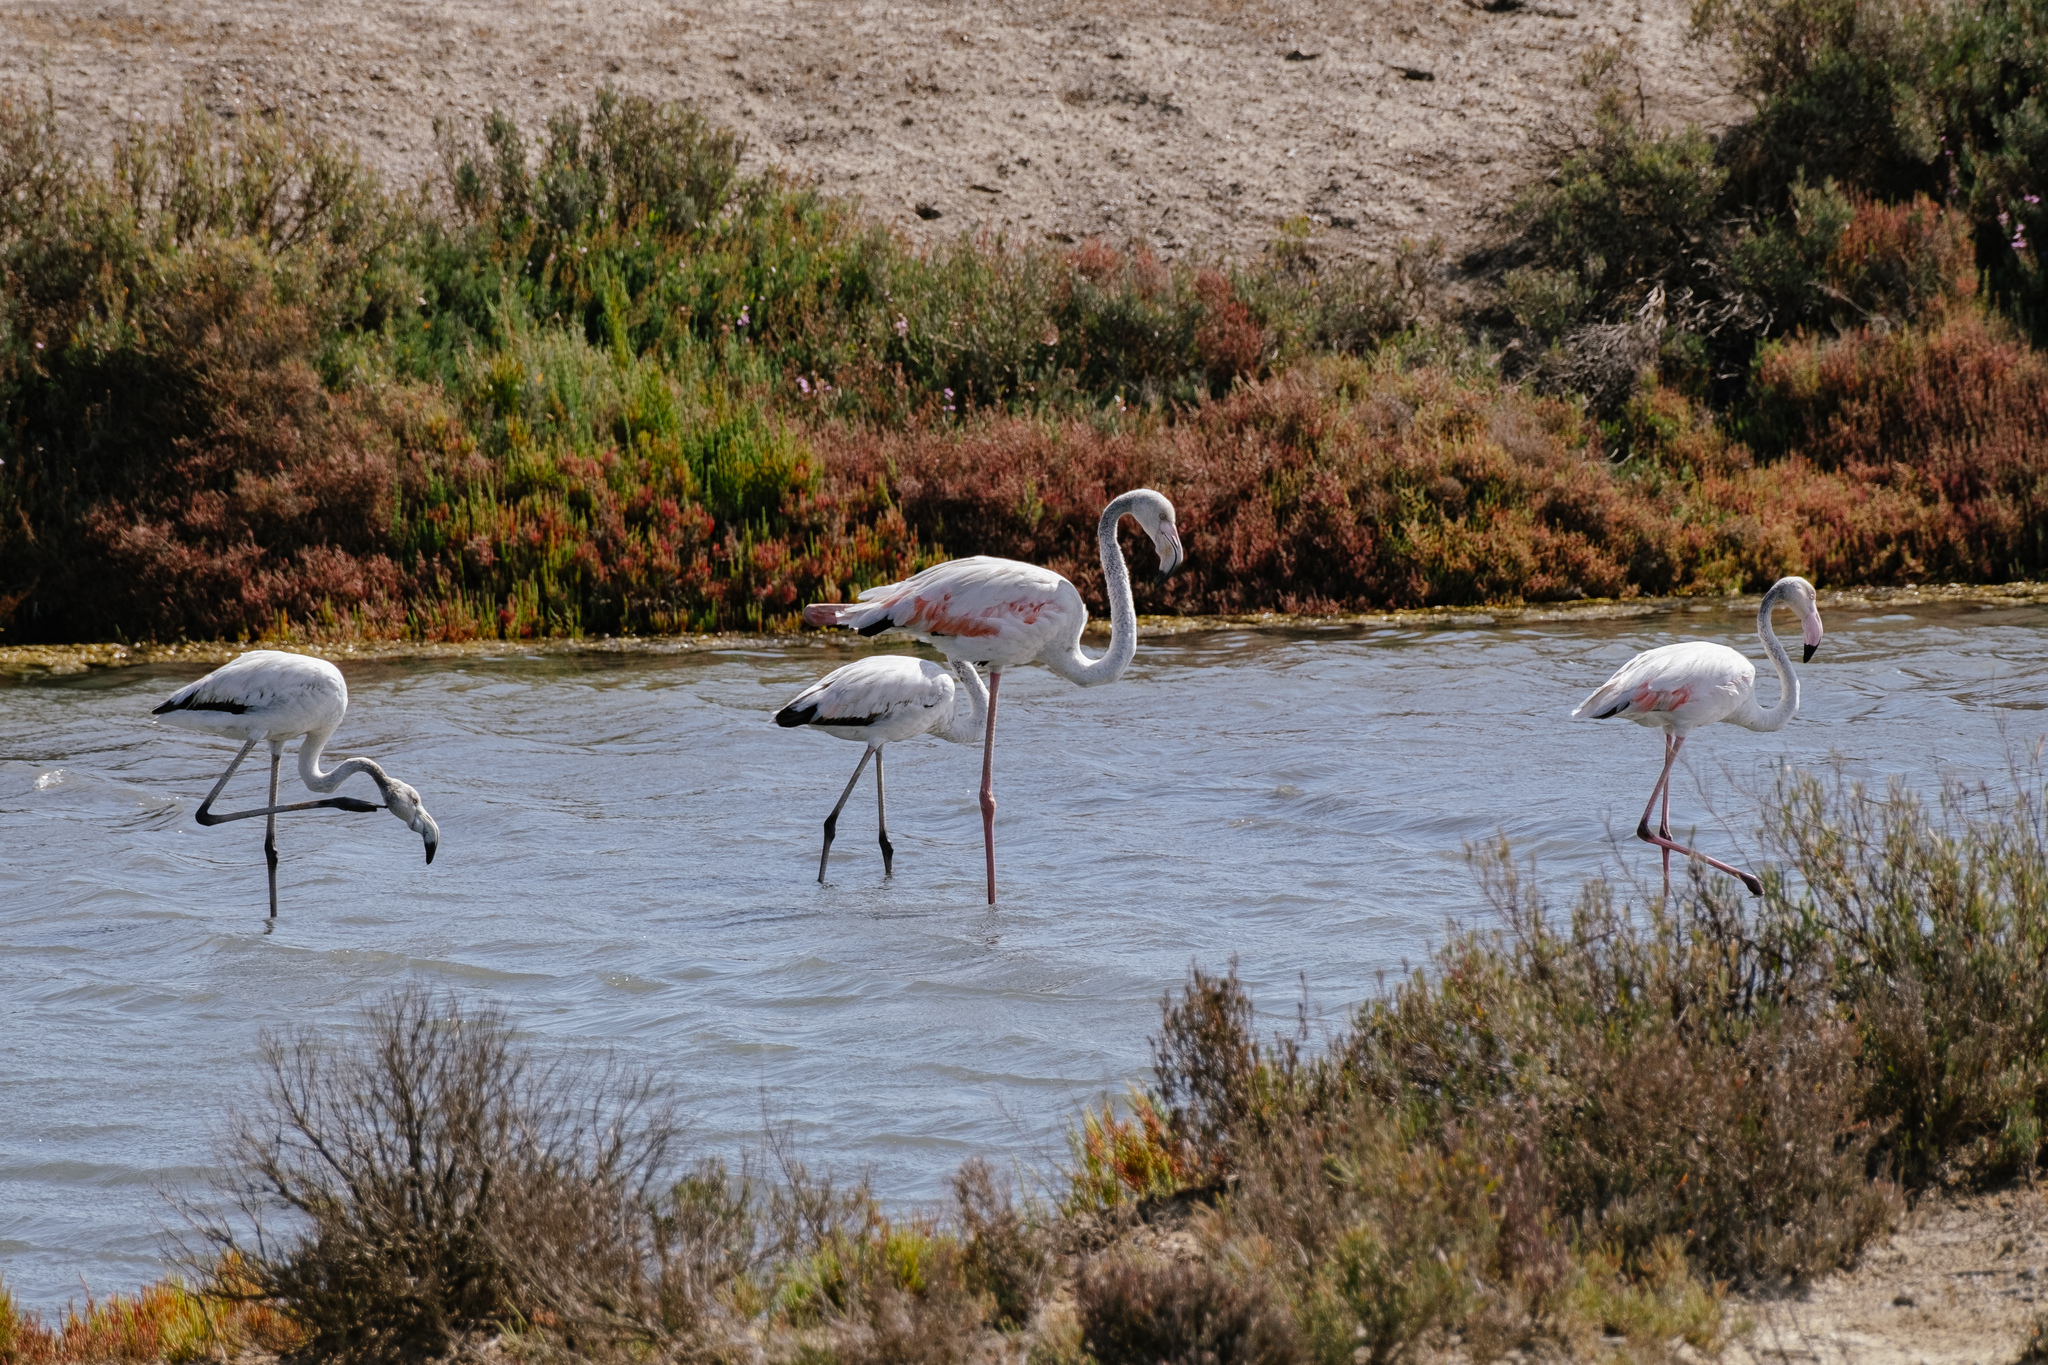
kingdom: Animalia
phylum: Chordata
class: Aves
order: Phoenicopteriformes
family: Phoenicopteridae
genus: Phoenicopterus
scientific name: Phoenicopterus roseus
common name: Greater flamingo
